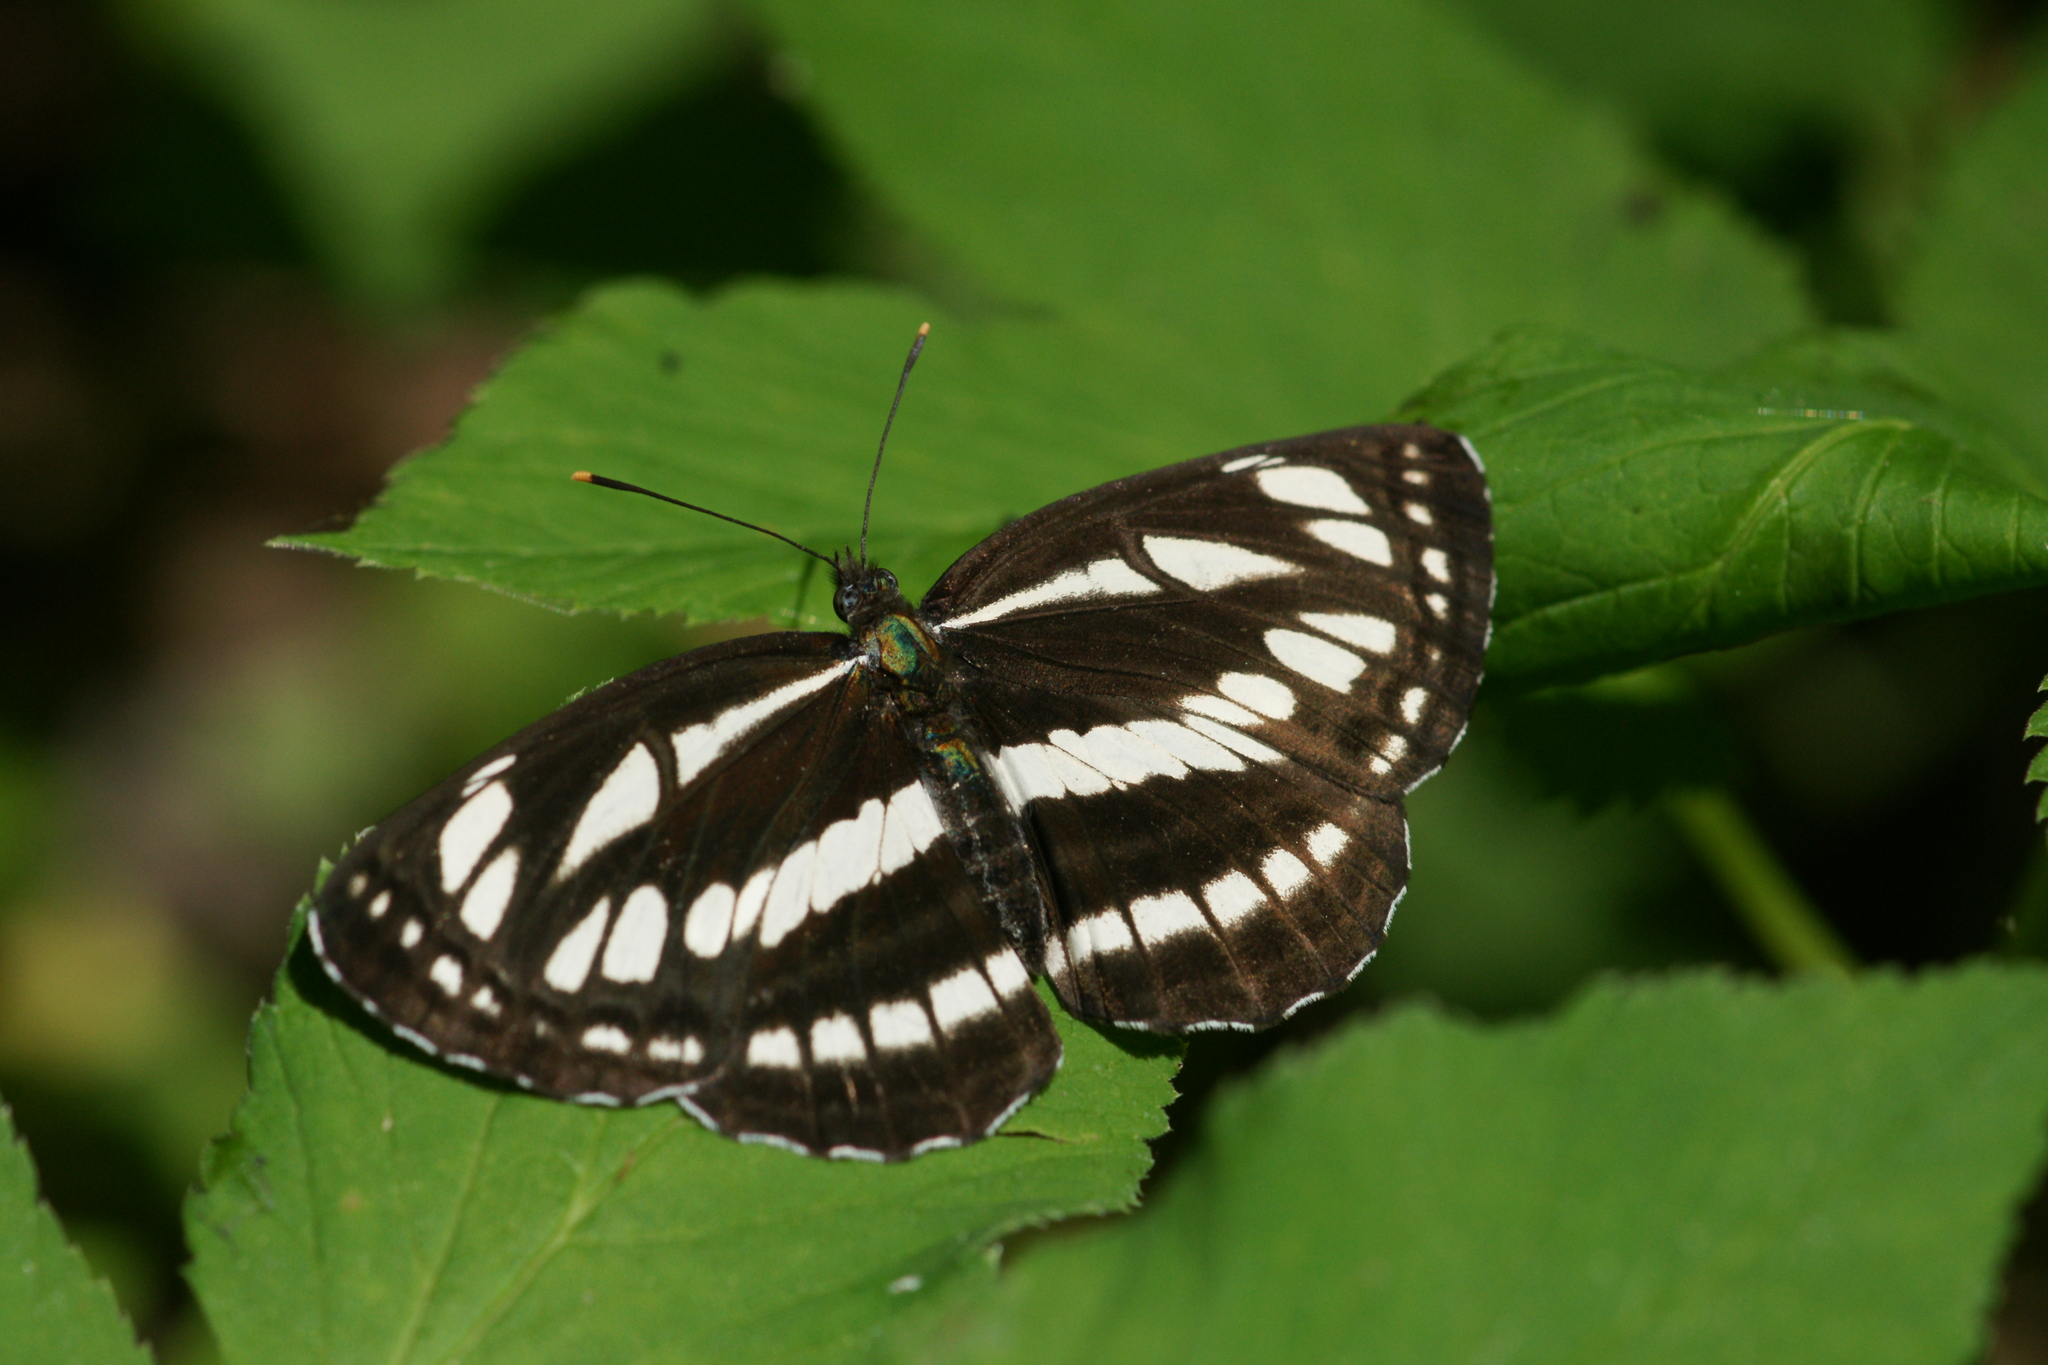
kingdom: Animalia
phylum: Arthropoda
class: Insecta
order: Lepidoptera
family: Nymphalidae
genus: Neptis
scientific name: Neptis sappho
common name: Common glider
